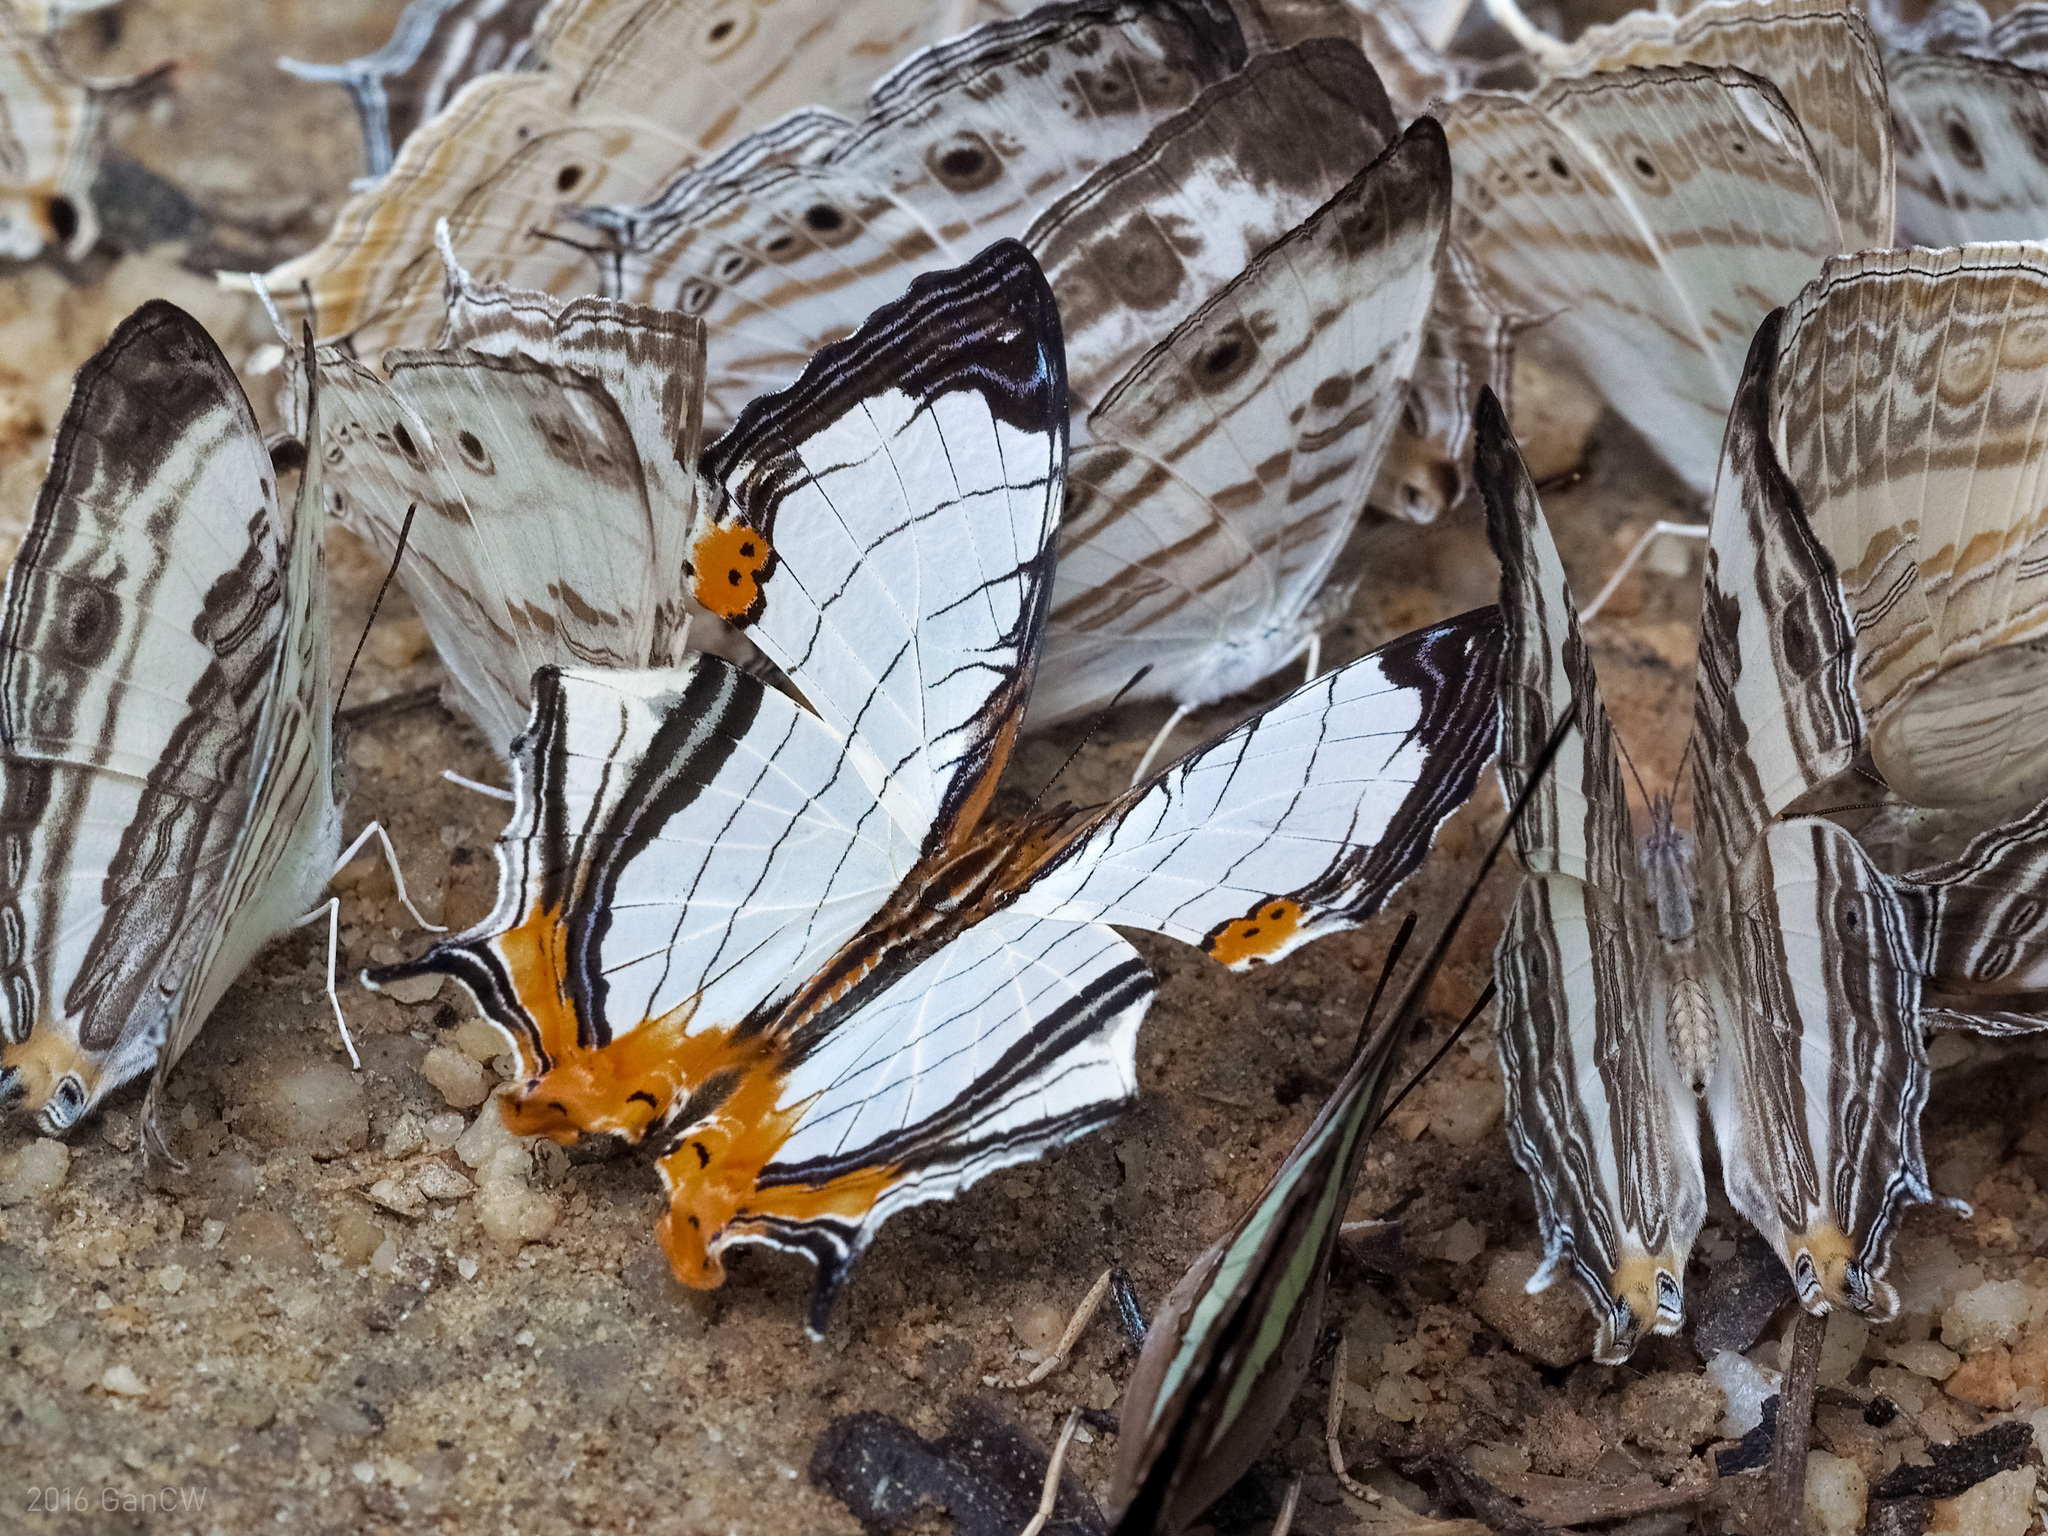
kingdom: Animalia
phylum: Arthropoda
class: Insecta
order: Lepidoptera
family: Nymphalidae
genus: Cyrestis
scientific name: Cyrestis nivea
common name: Straight line mapwing
